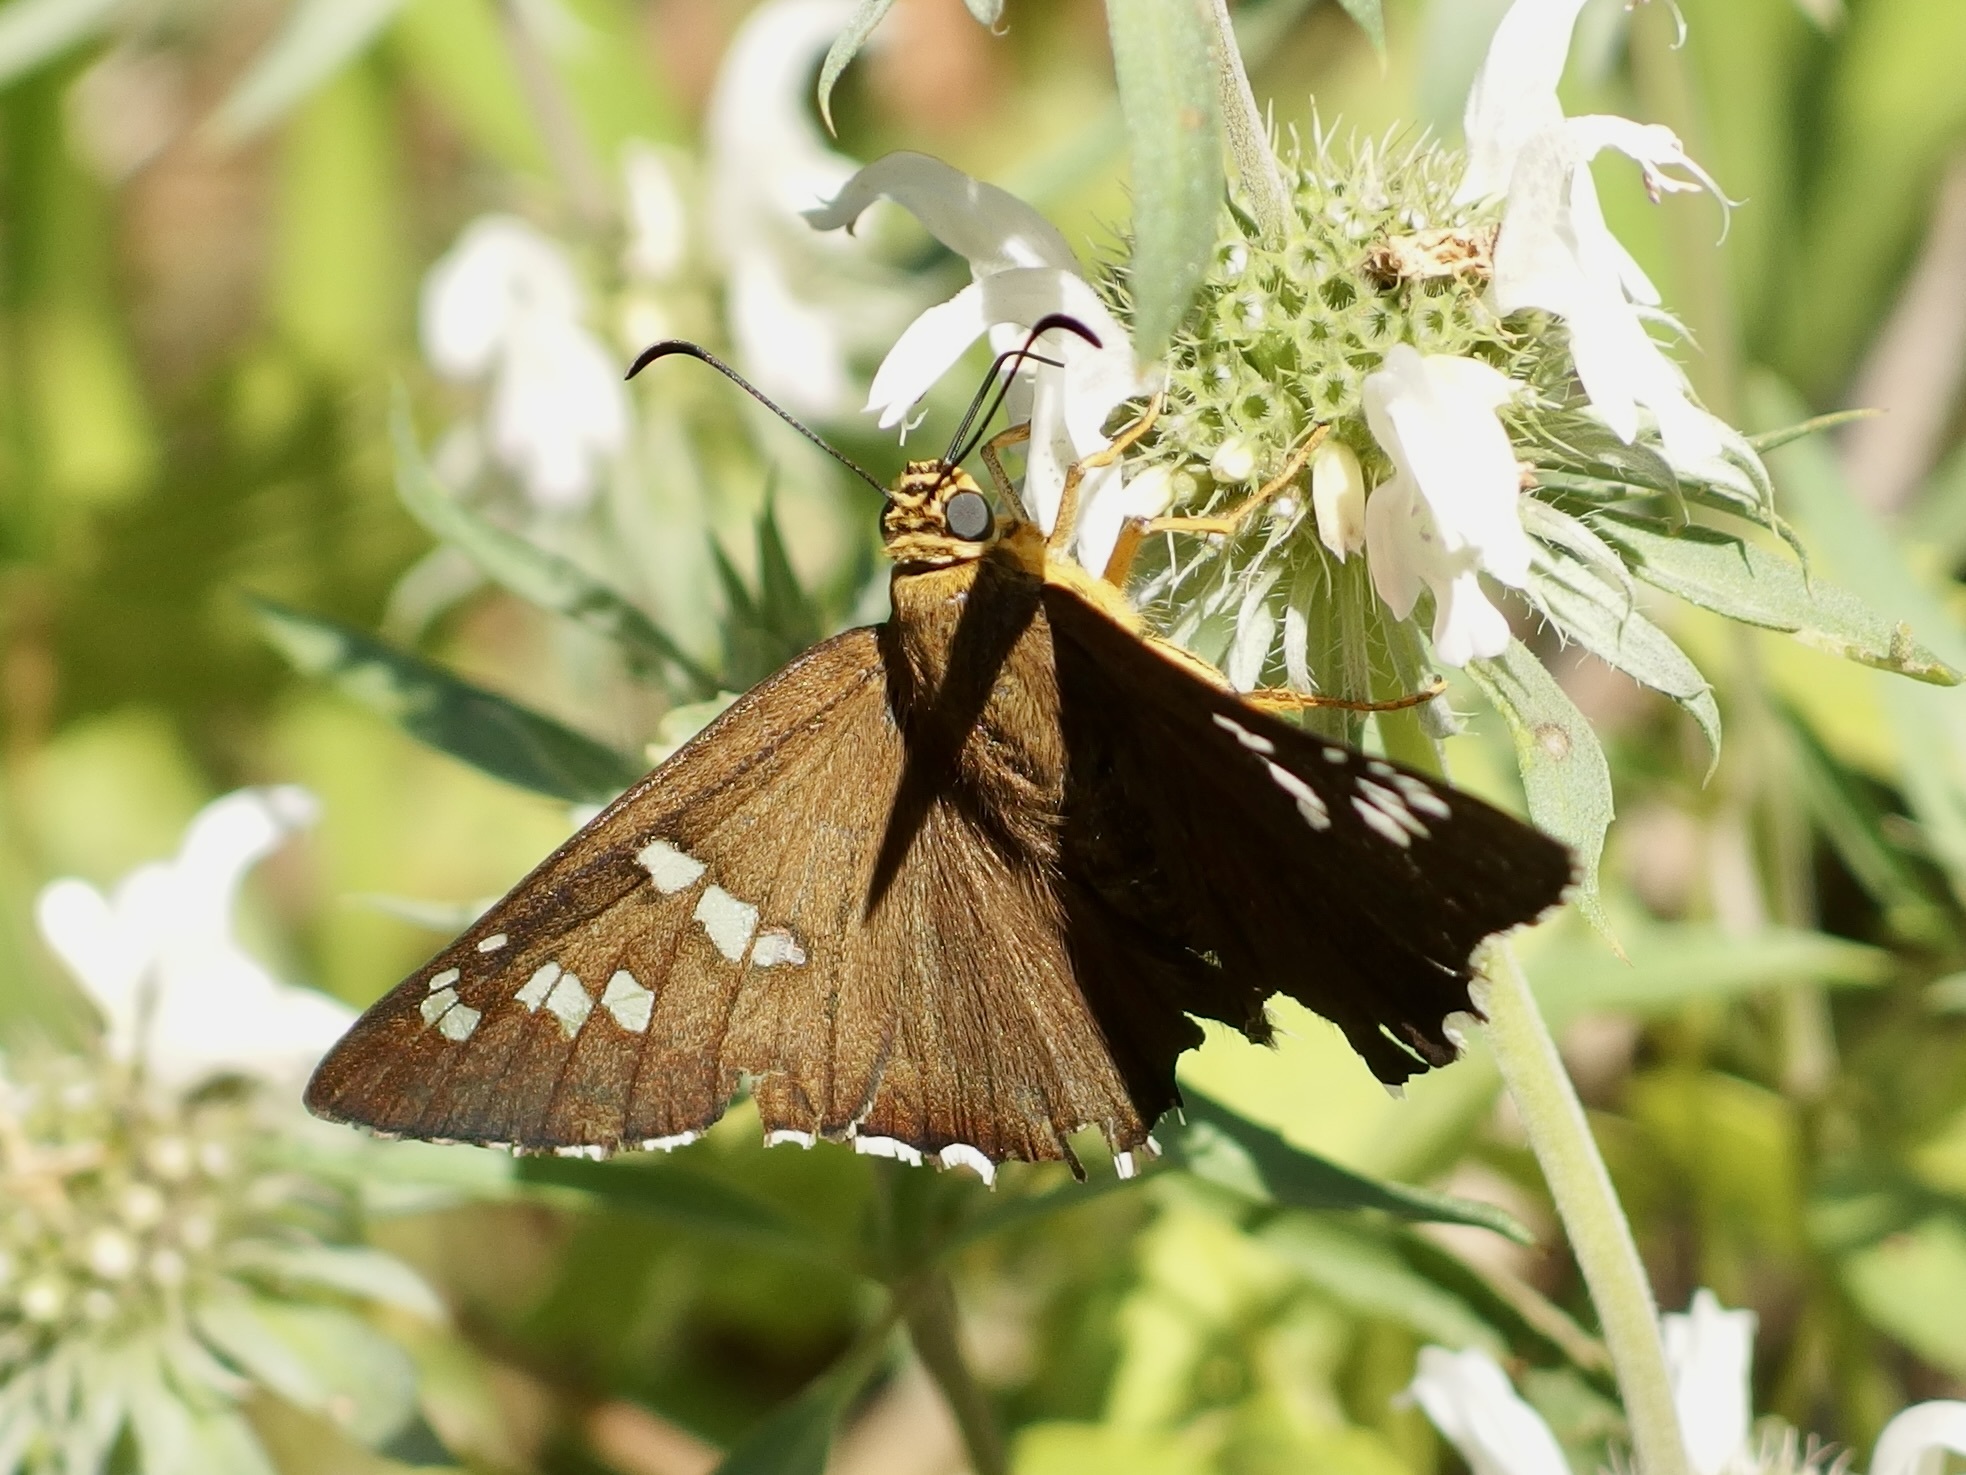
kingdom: Animalia
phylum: Arthropoda
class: Insecta
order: Lepidoptera
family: Hesperiidae
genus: Pyrrhopyge
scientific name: Pyrrhopyge araxes
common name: Dull firetip
